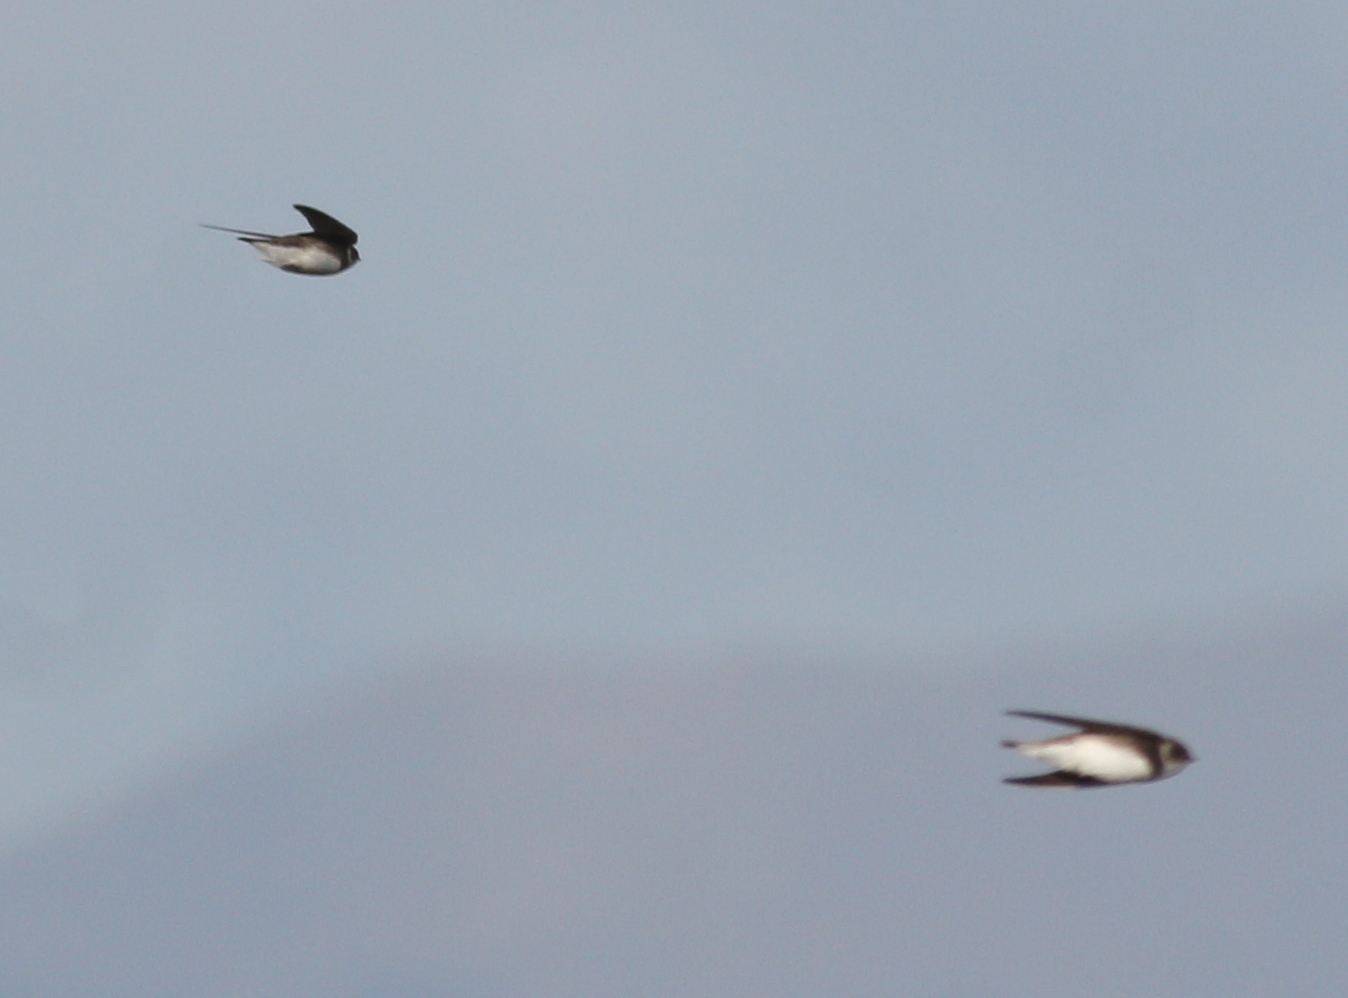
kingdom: Animalia
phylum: Chordata
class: Aves
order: Passeriformes
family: Hirundinidae
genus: Riparia
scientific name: Riparia riparia
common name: Sand martin
